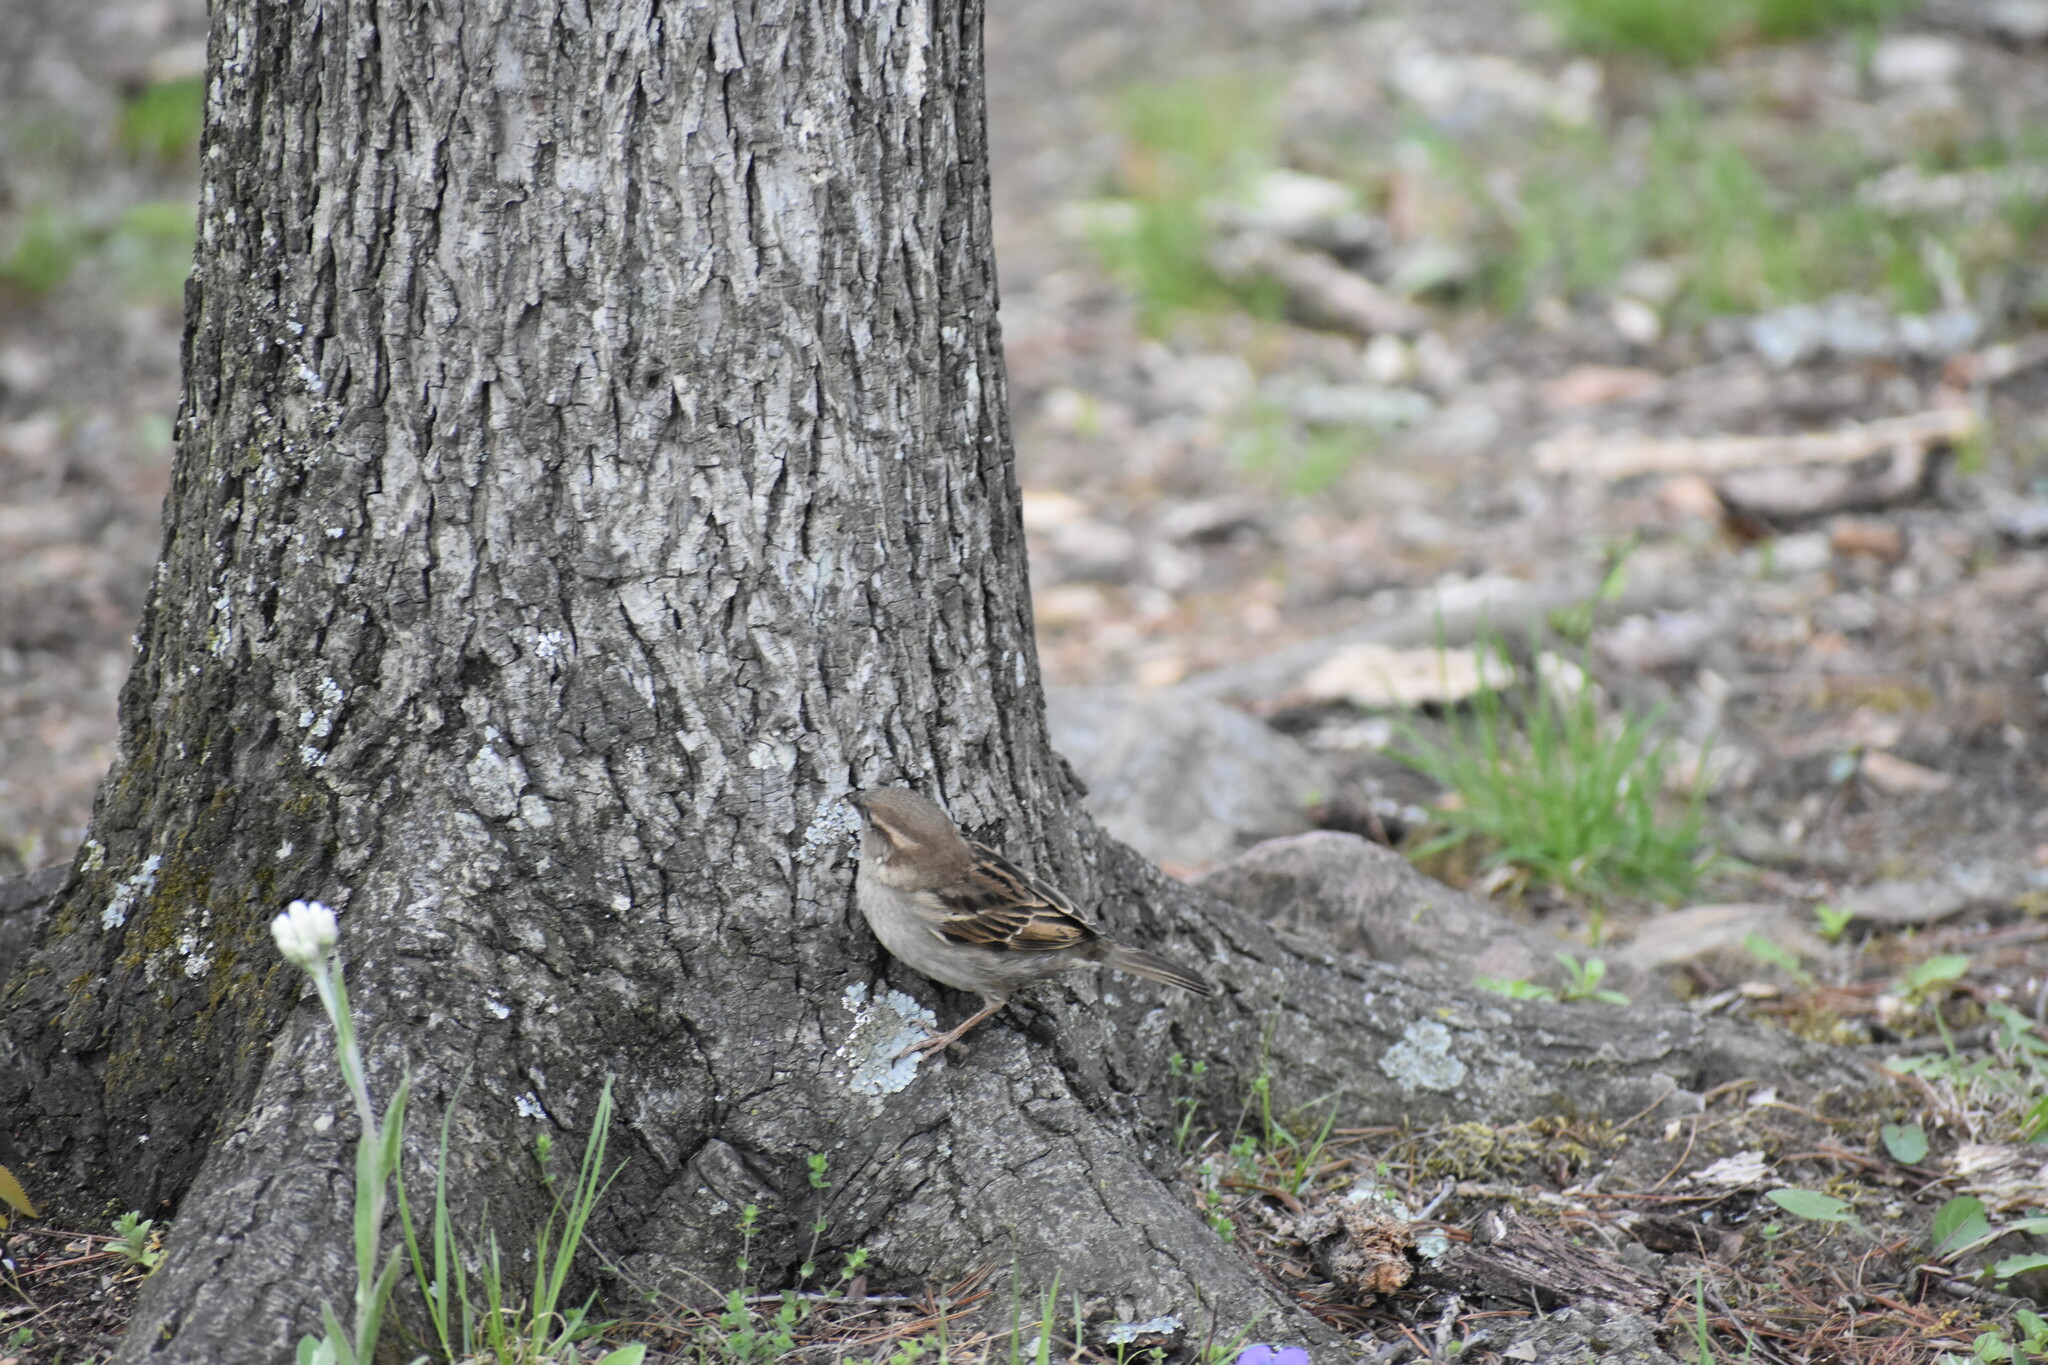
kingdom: Animalia
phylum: Chordata
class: Aves
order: Passeriformes
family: Passeridae
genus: Passer
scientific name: Passer domesticus
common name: House sparrow
